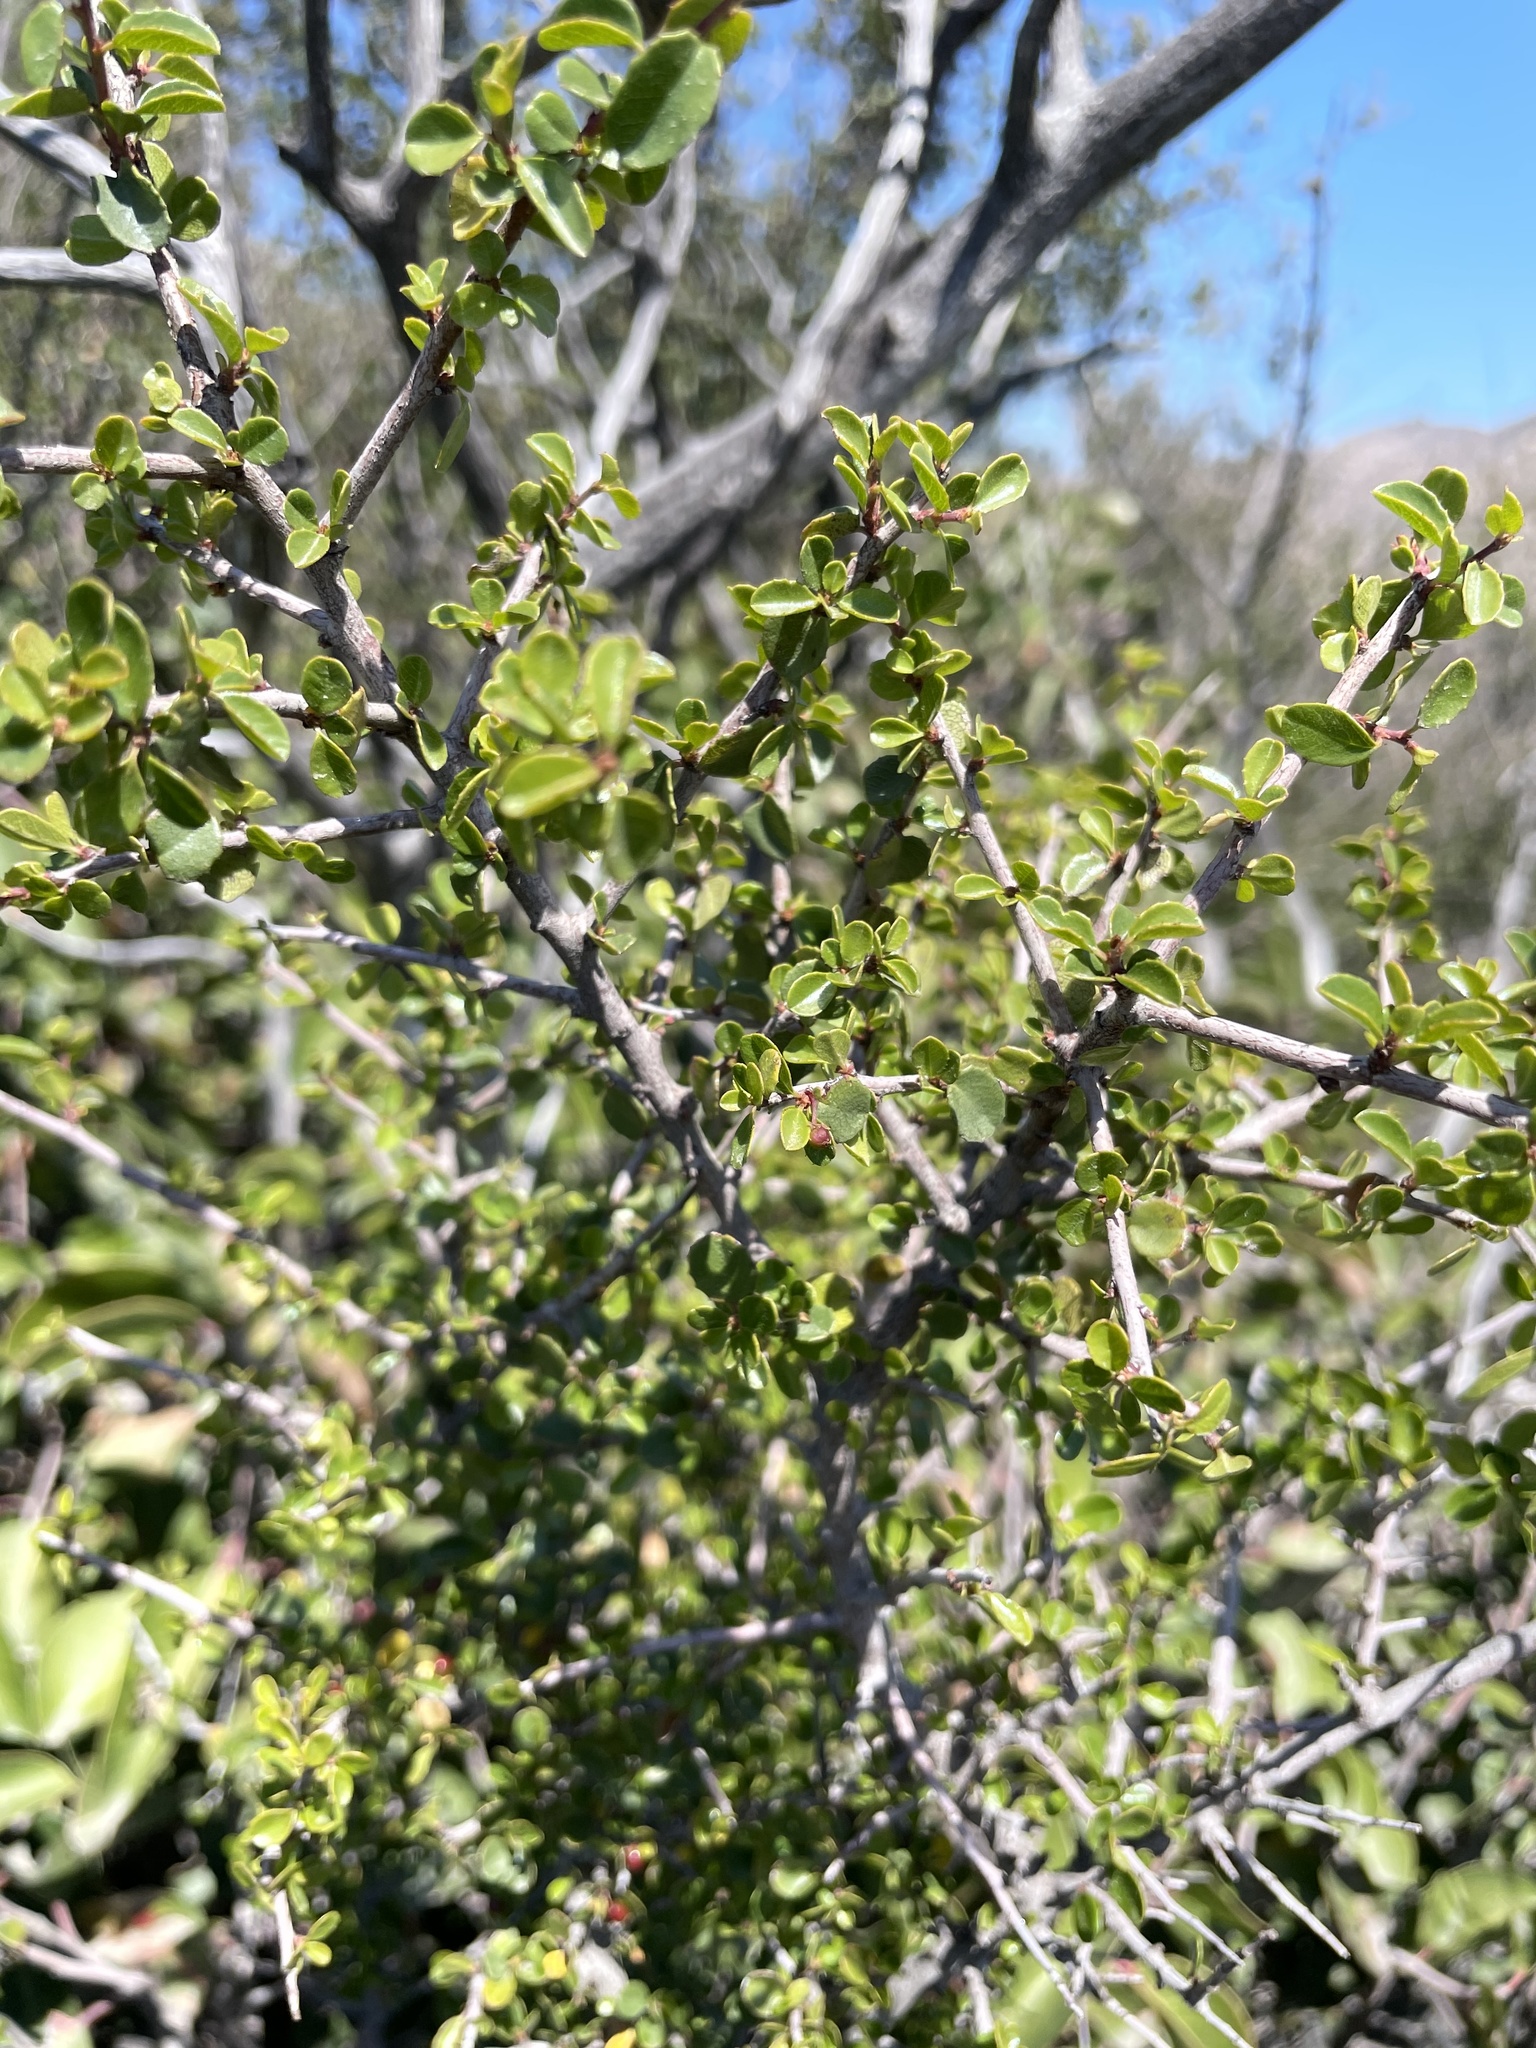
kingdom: Plantae
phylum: Tracheophyta
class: Magnoliopsida
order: Rosales
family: Rhamnaceae
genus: Endotropis
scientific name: Endotropis crocea
